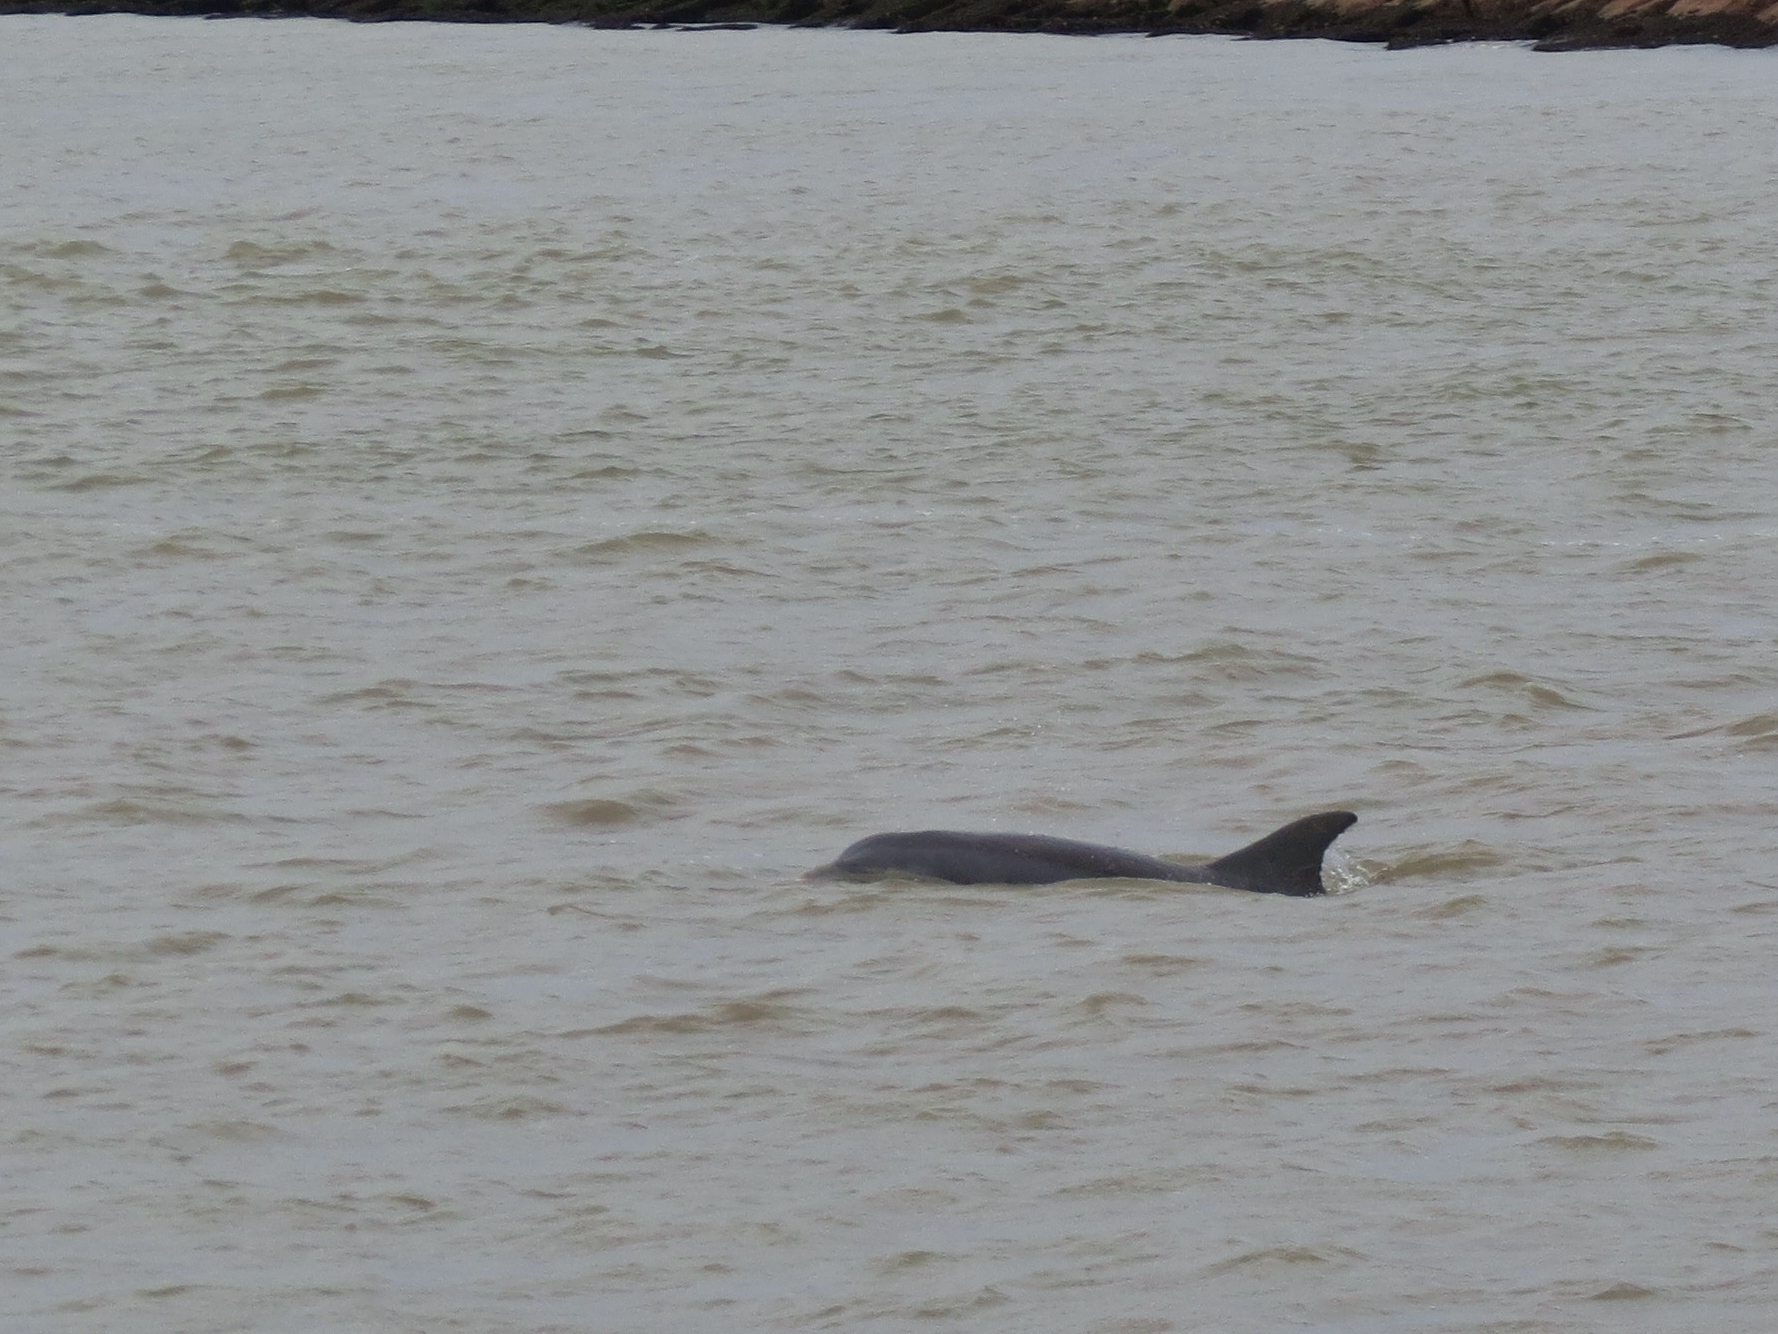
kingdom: Animalia
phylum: Chordata
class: Mammalia
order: Cetacea
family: Delphinidae
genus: Tursiops
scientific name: Tursiops truncatus
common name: Bottlenose dolphin
